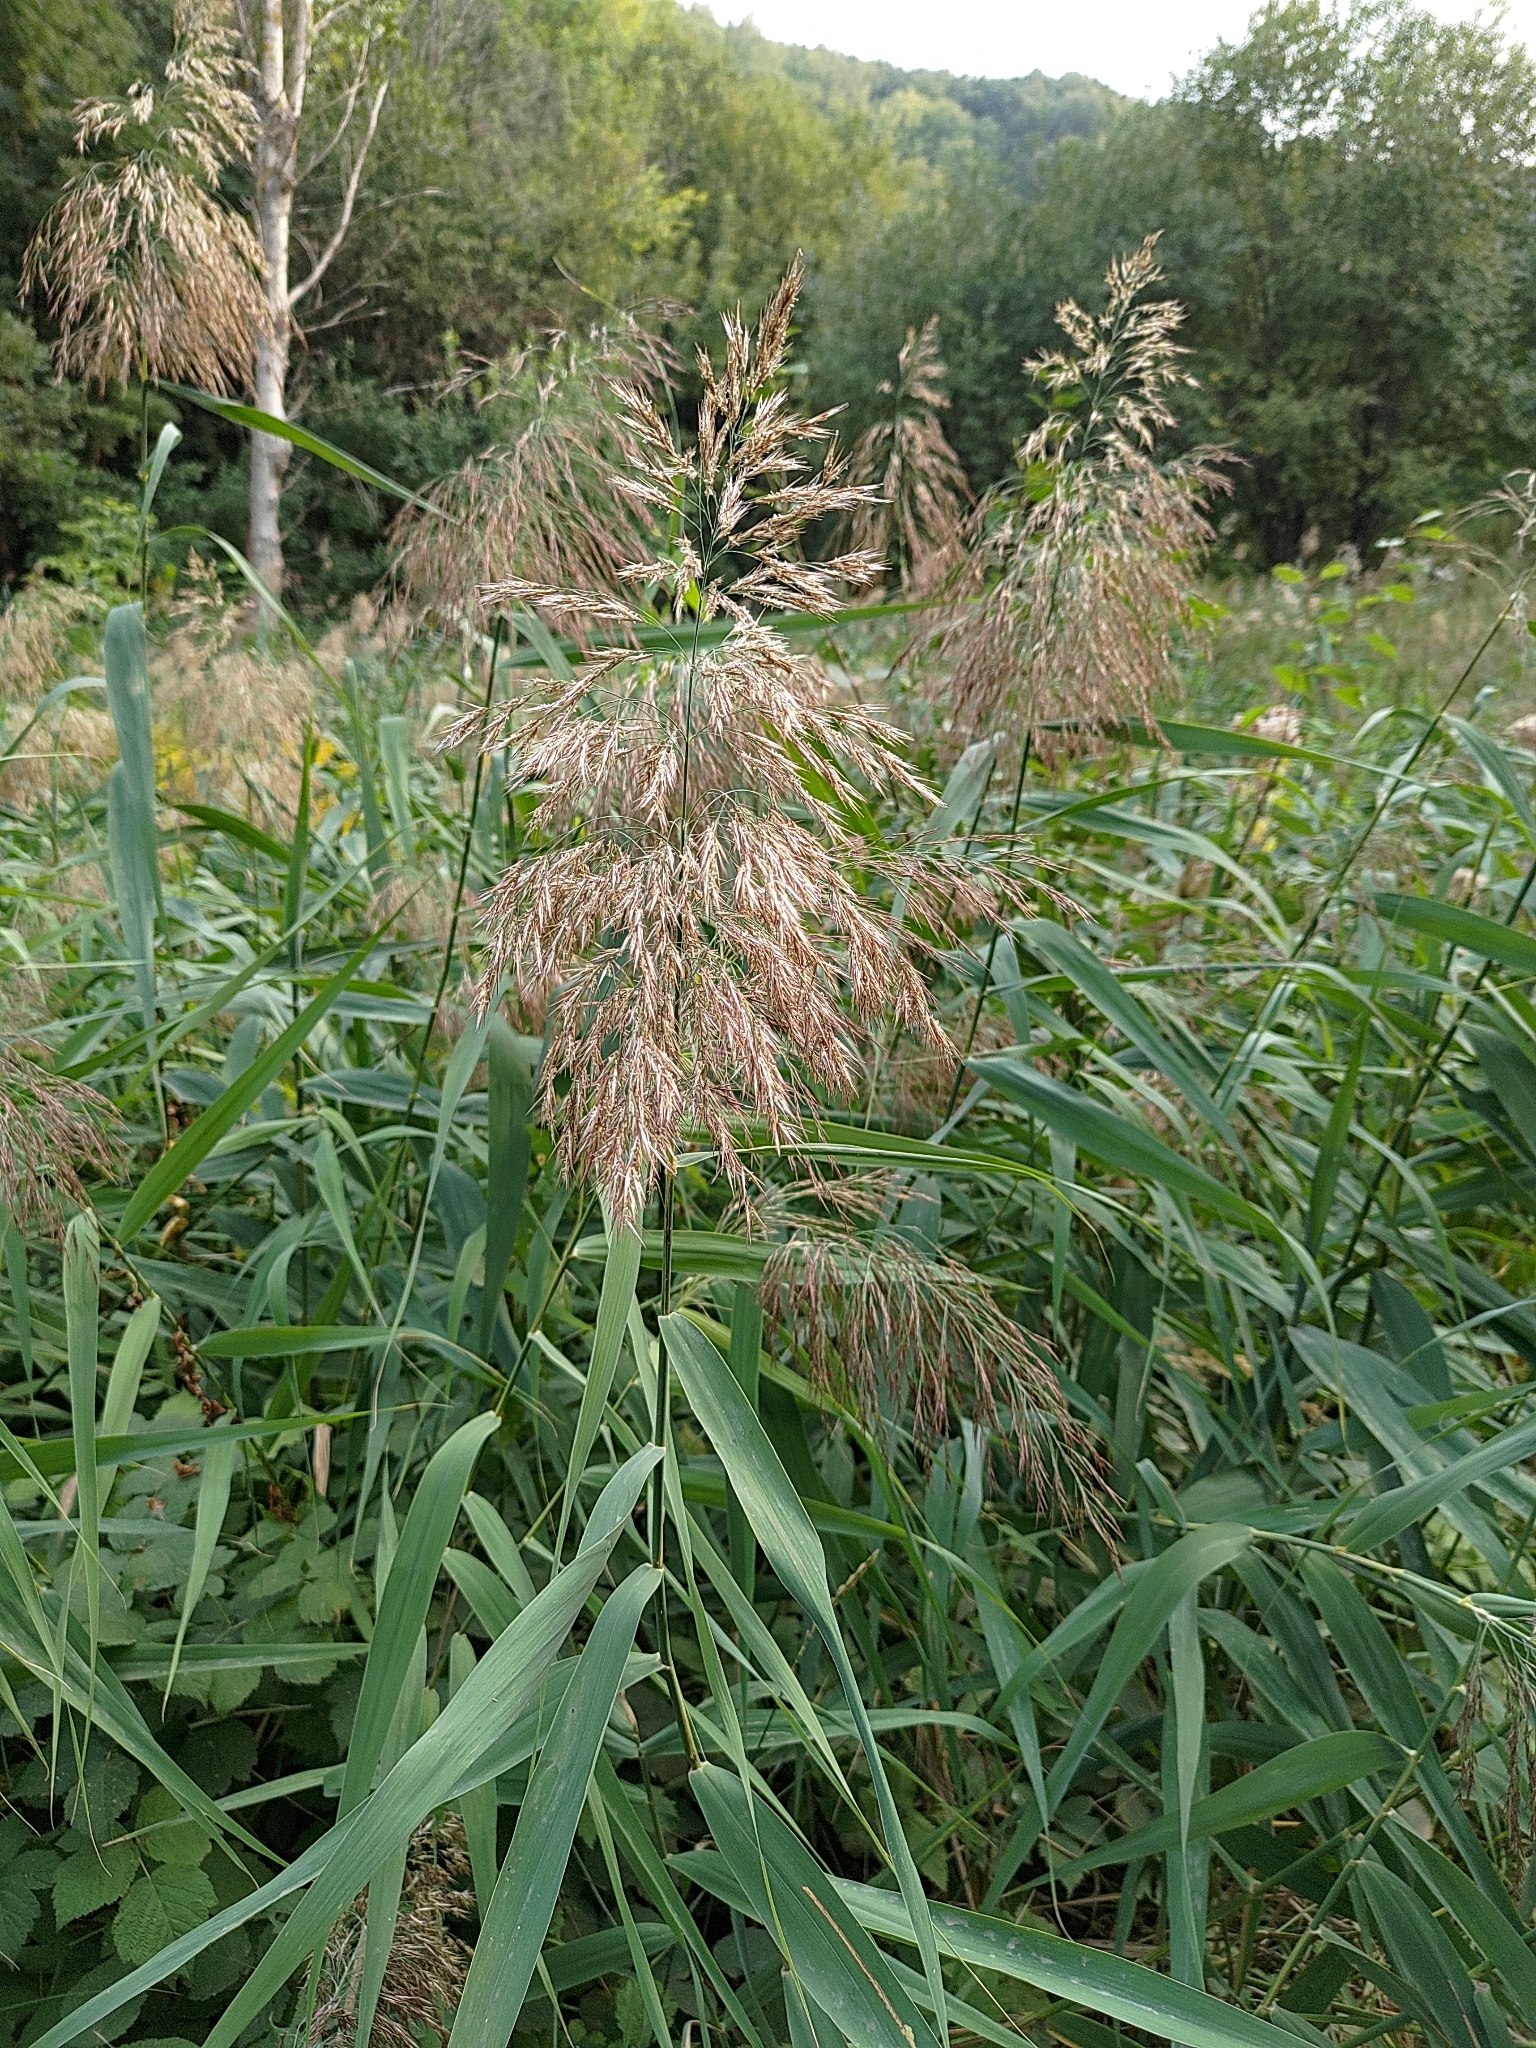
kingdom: Plantae
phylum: Tracheophyta
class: Liliopsida
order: Poales
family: Poaceae
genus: Phragmites
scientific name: Phragmites australis
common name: Common reed
